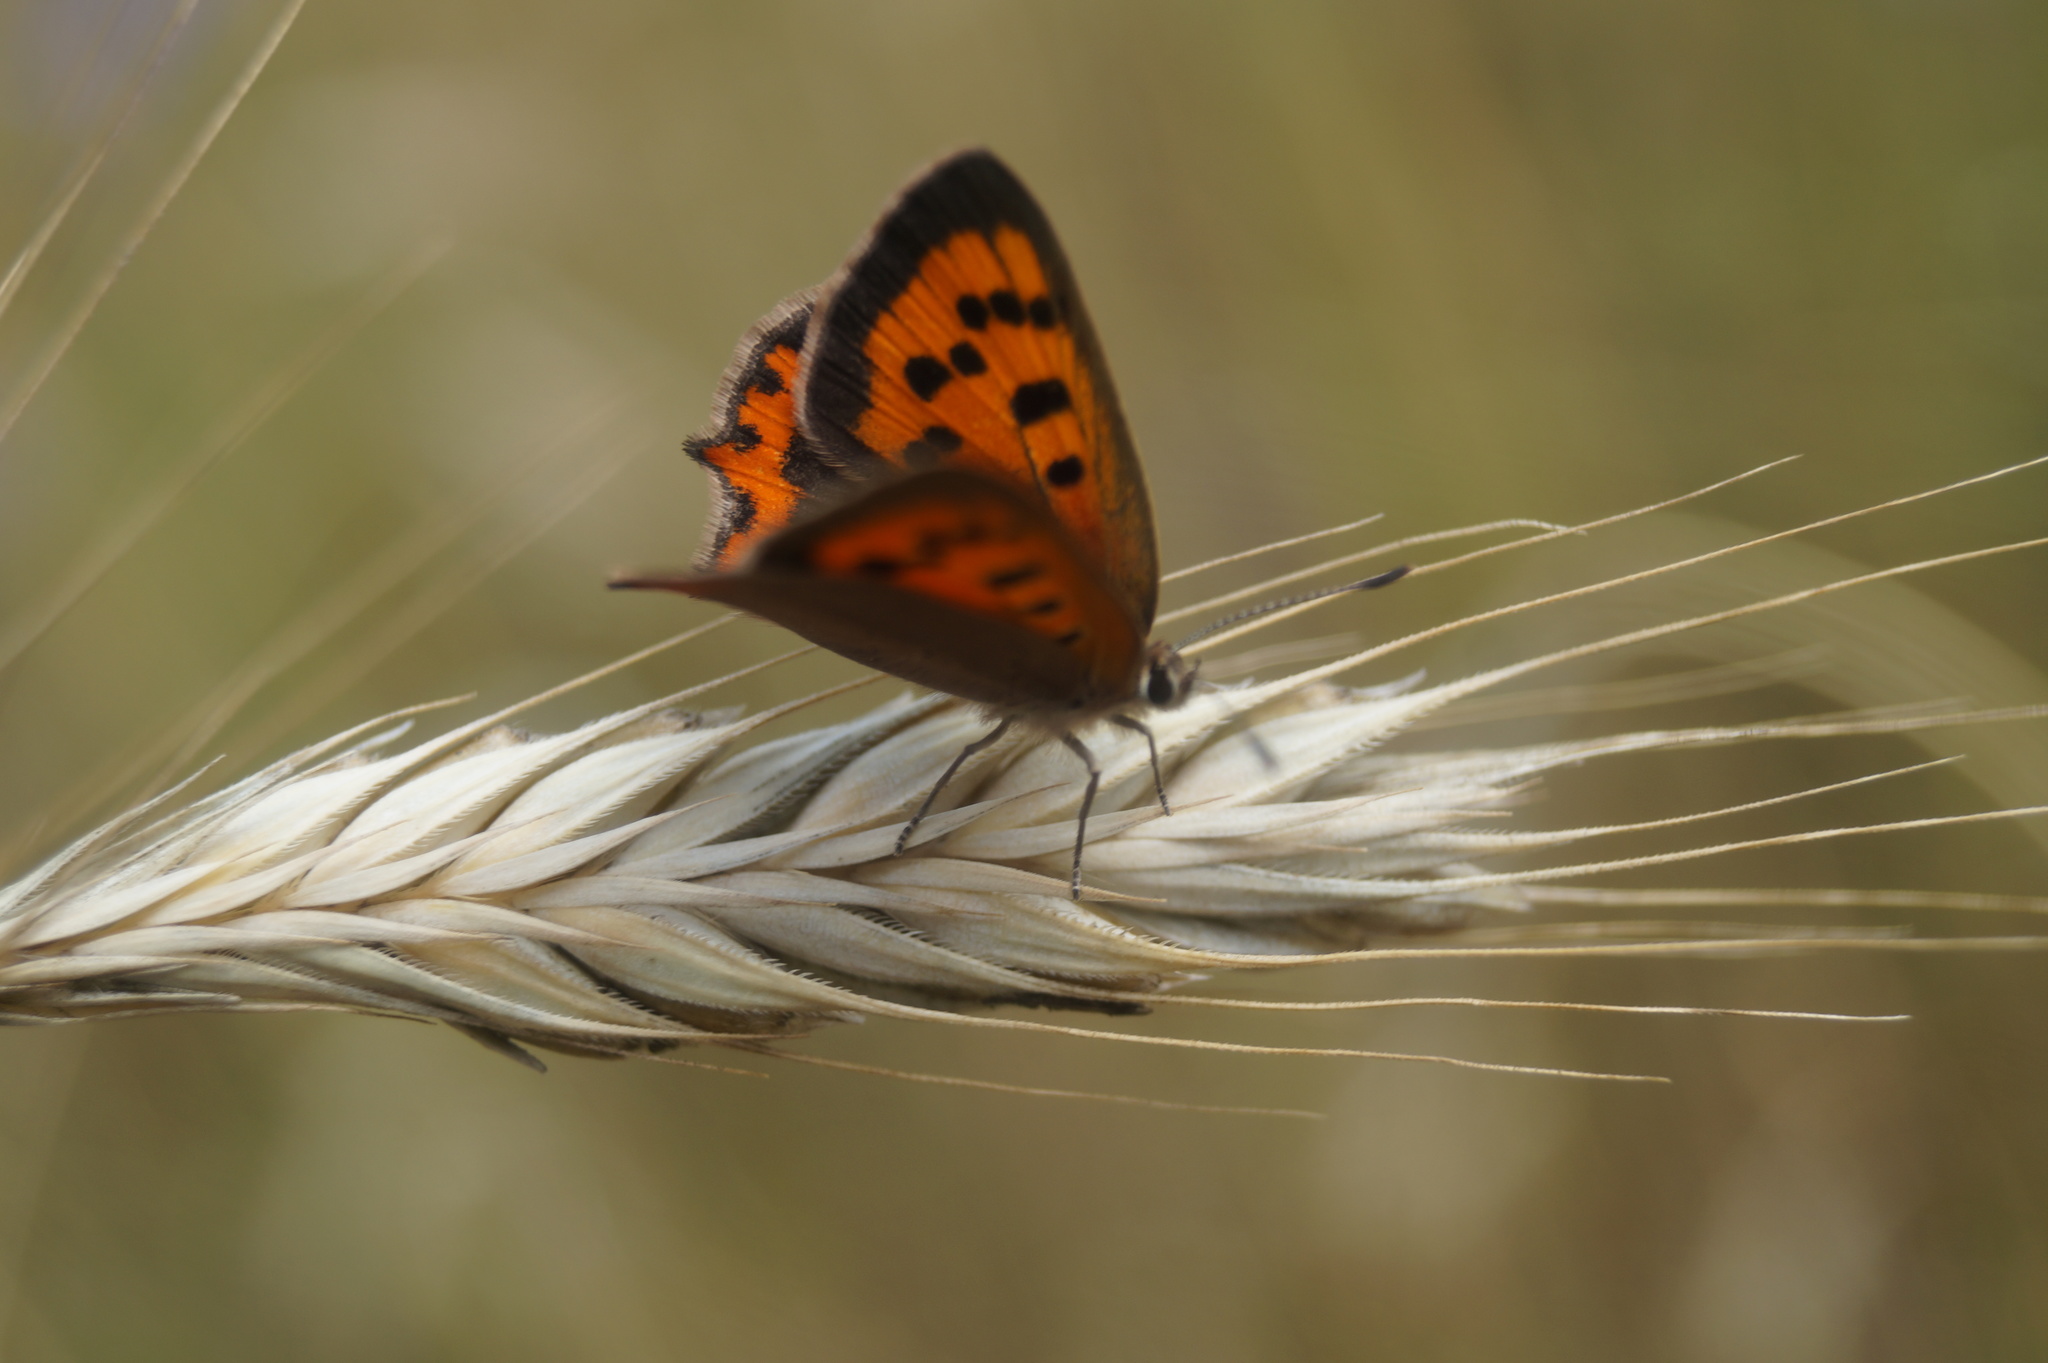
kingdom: Animalia
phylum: Arthropoda
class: Insecta
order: Lepidoptera
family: Lycaenidae
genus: Lycaena
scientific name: Lycaena phlaeas
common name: Small copper
